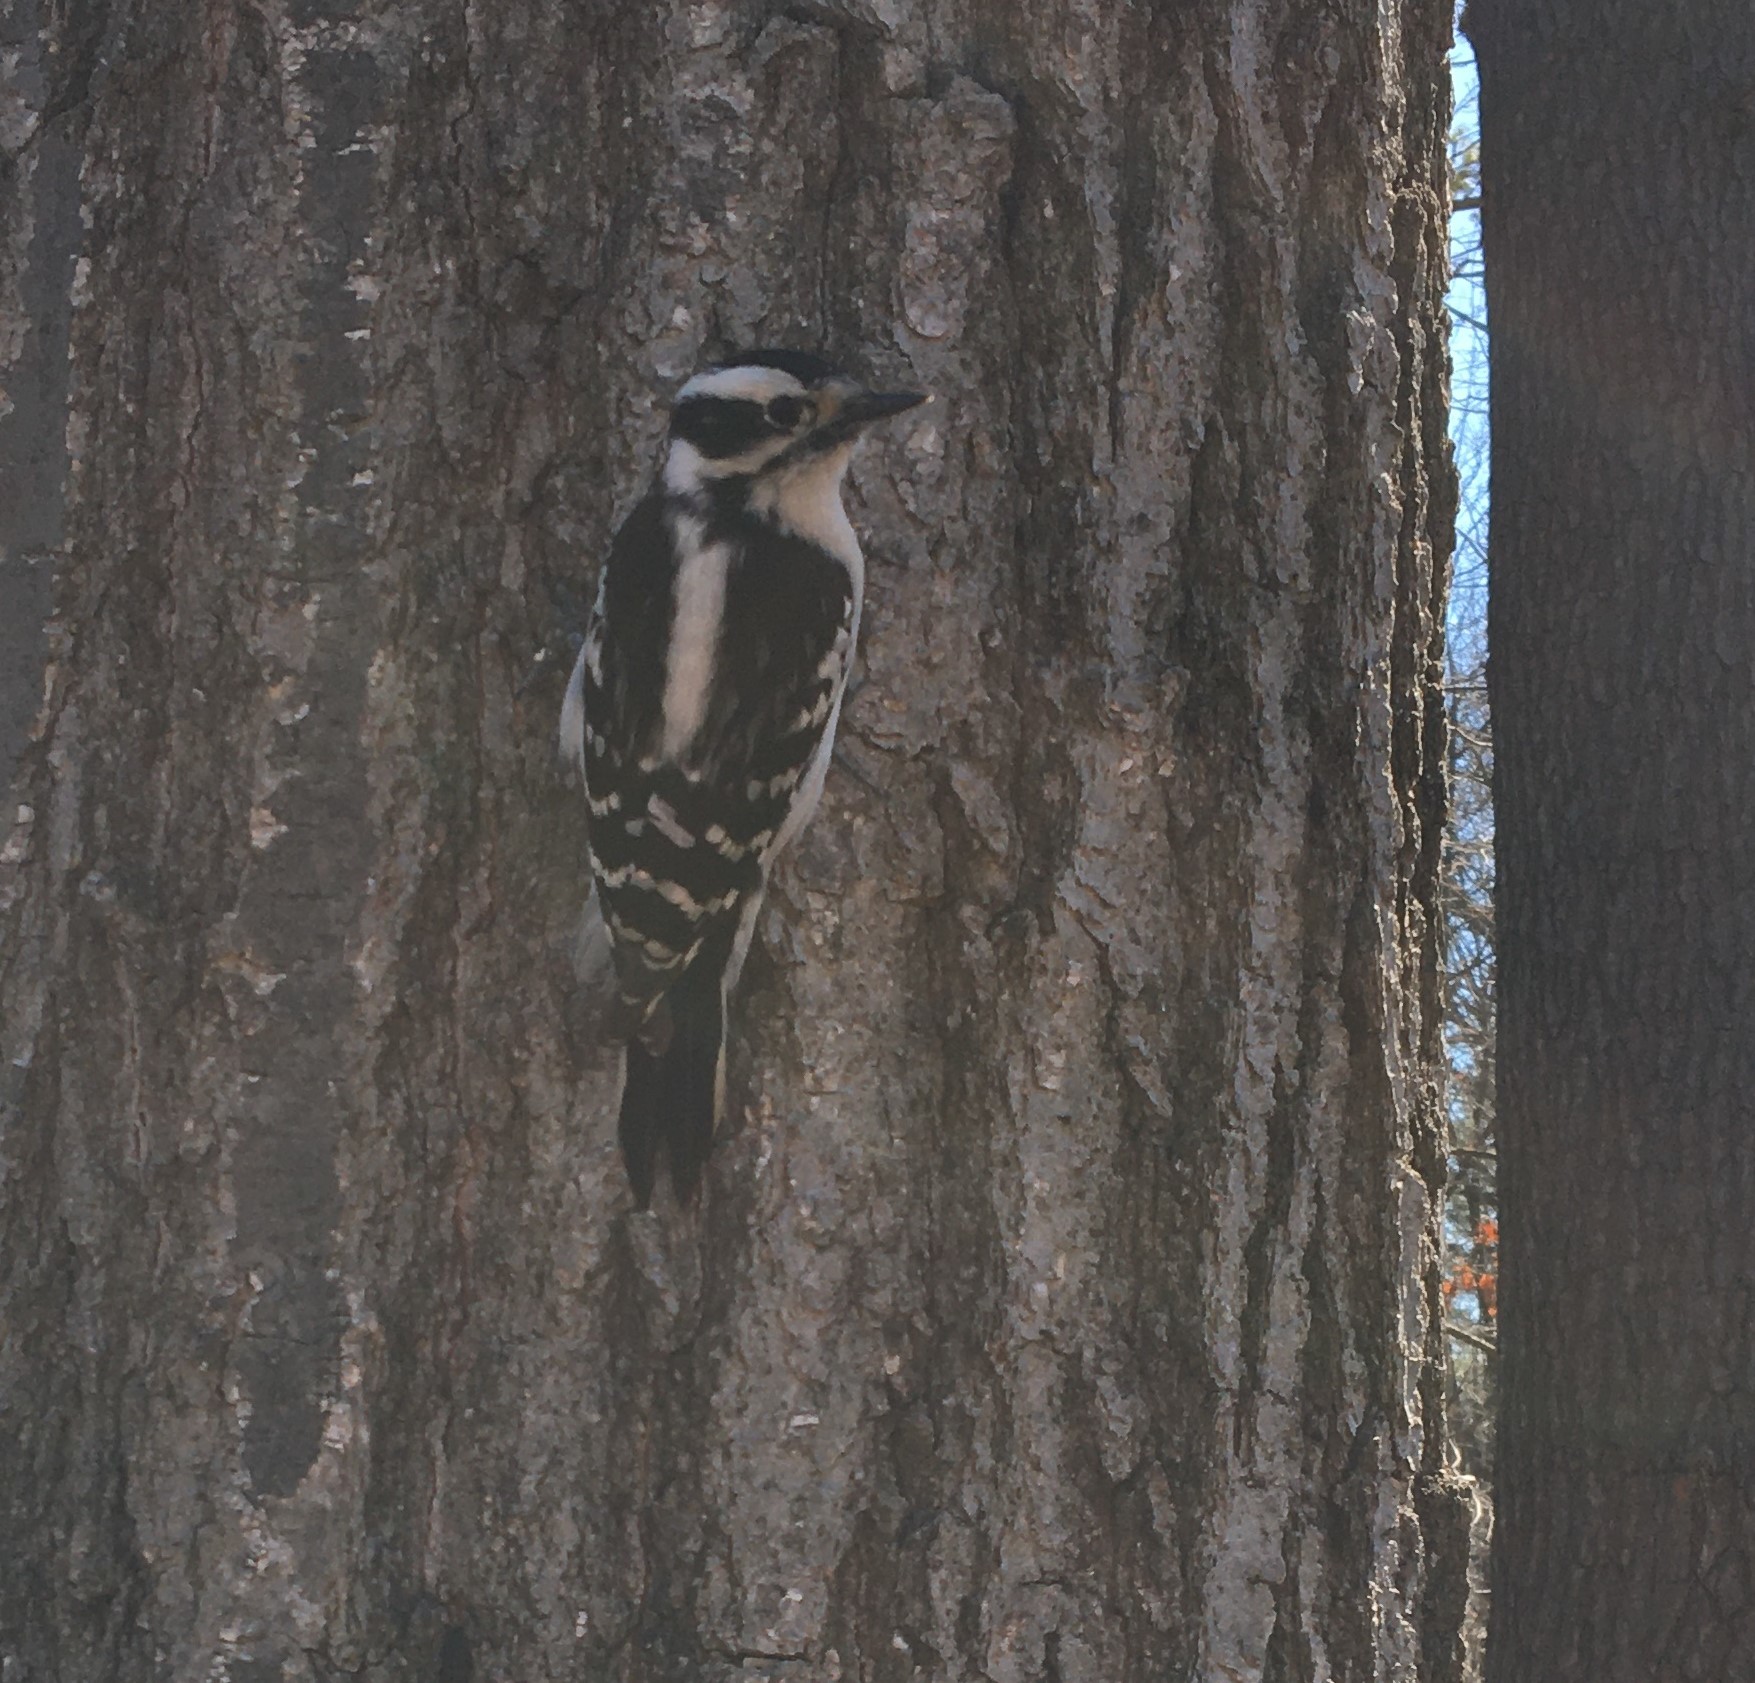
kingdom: Animalia
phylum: Chordata
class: Aves
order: Piciformes
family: Picidae
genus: Dryobates
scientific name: Dryobates pubescens
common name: Downy woodpecker
